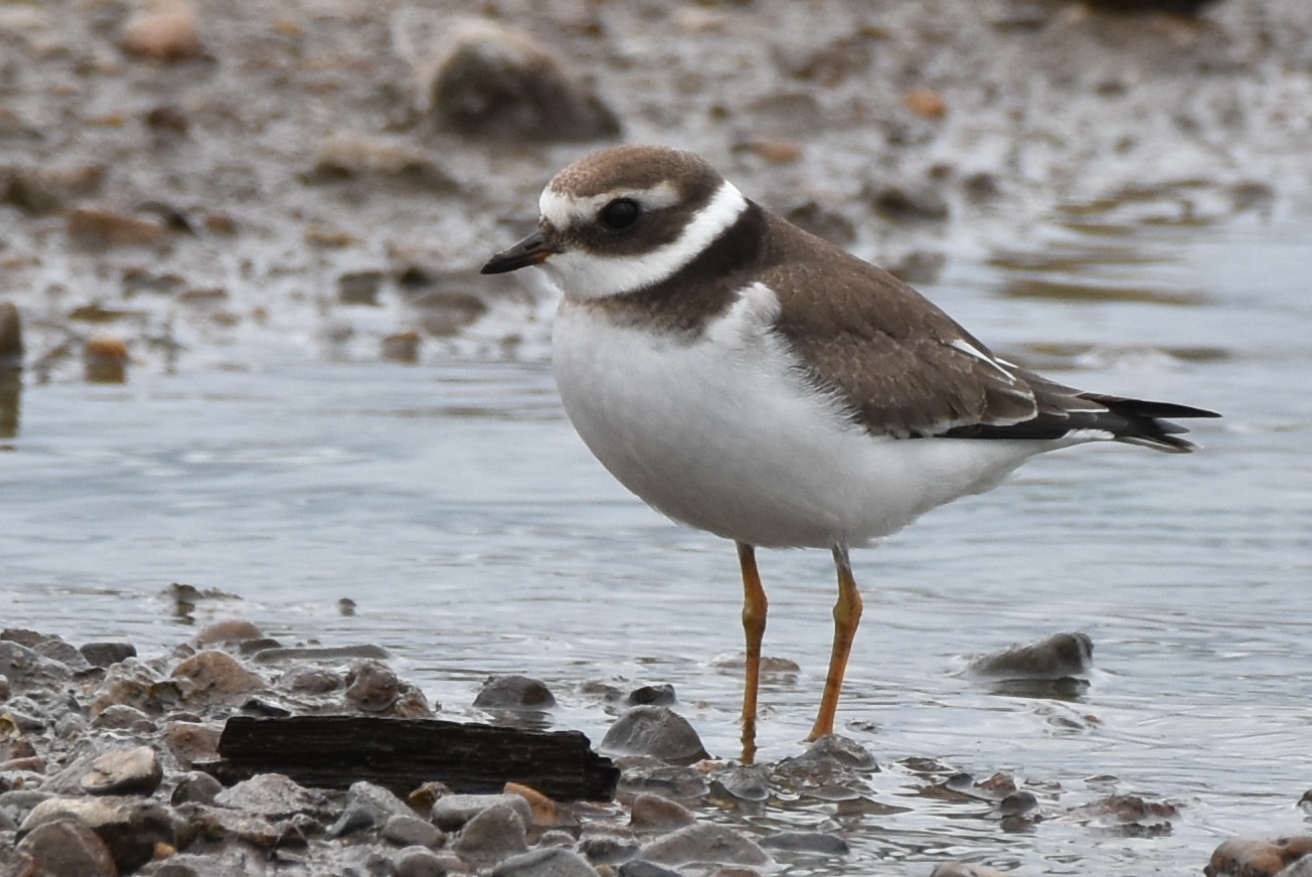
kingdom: Animalia
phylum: Chordata
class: Aves
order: Charadriiformes
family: Charadriidae
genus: Charadrius
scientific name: Charadrius hiaticula
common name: Common ringed plover
